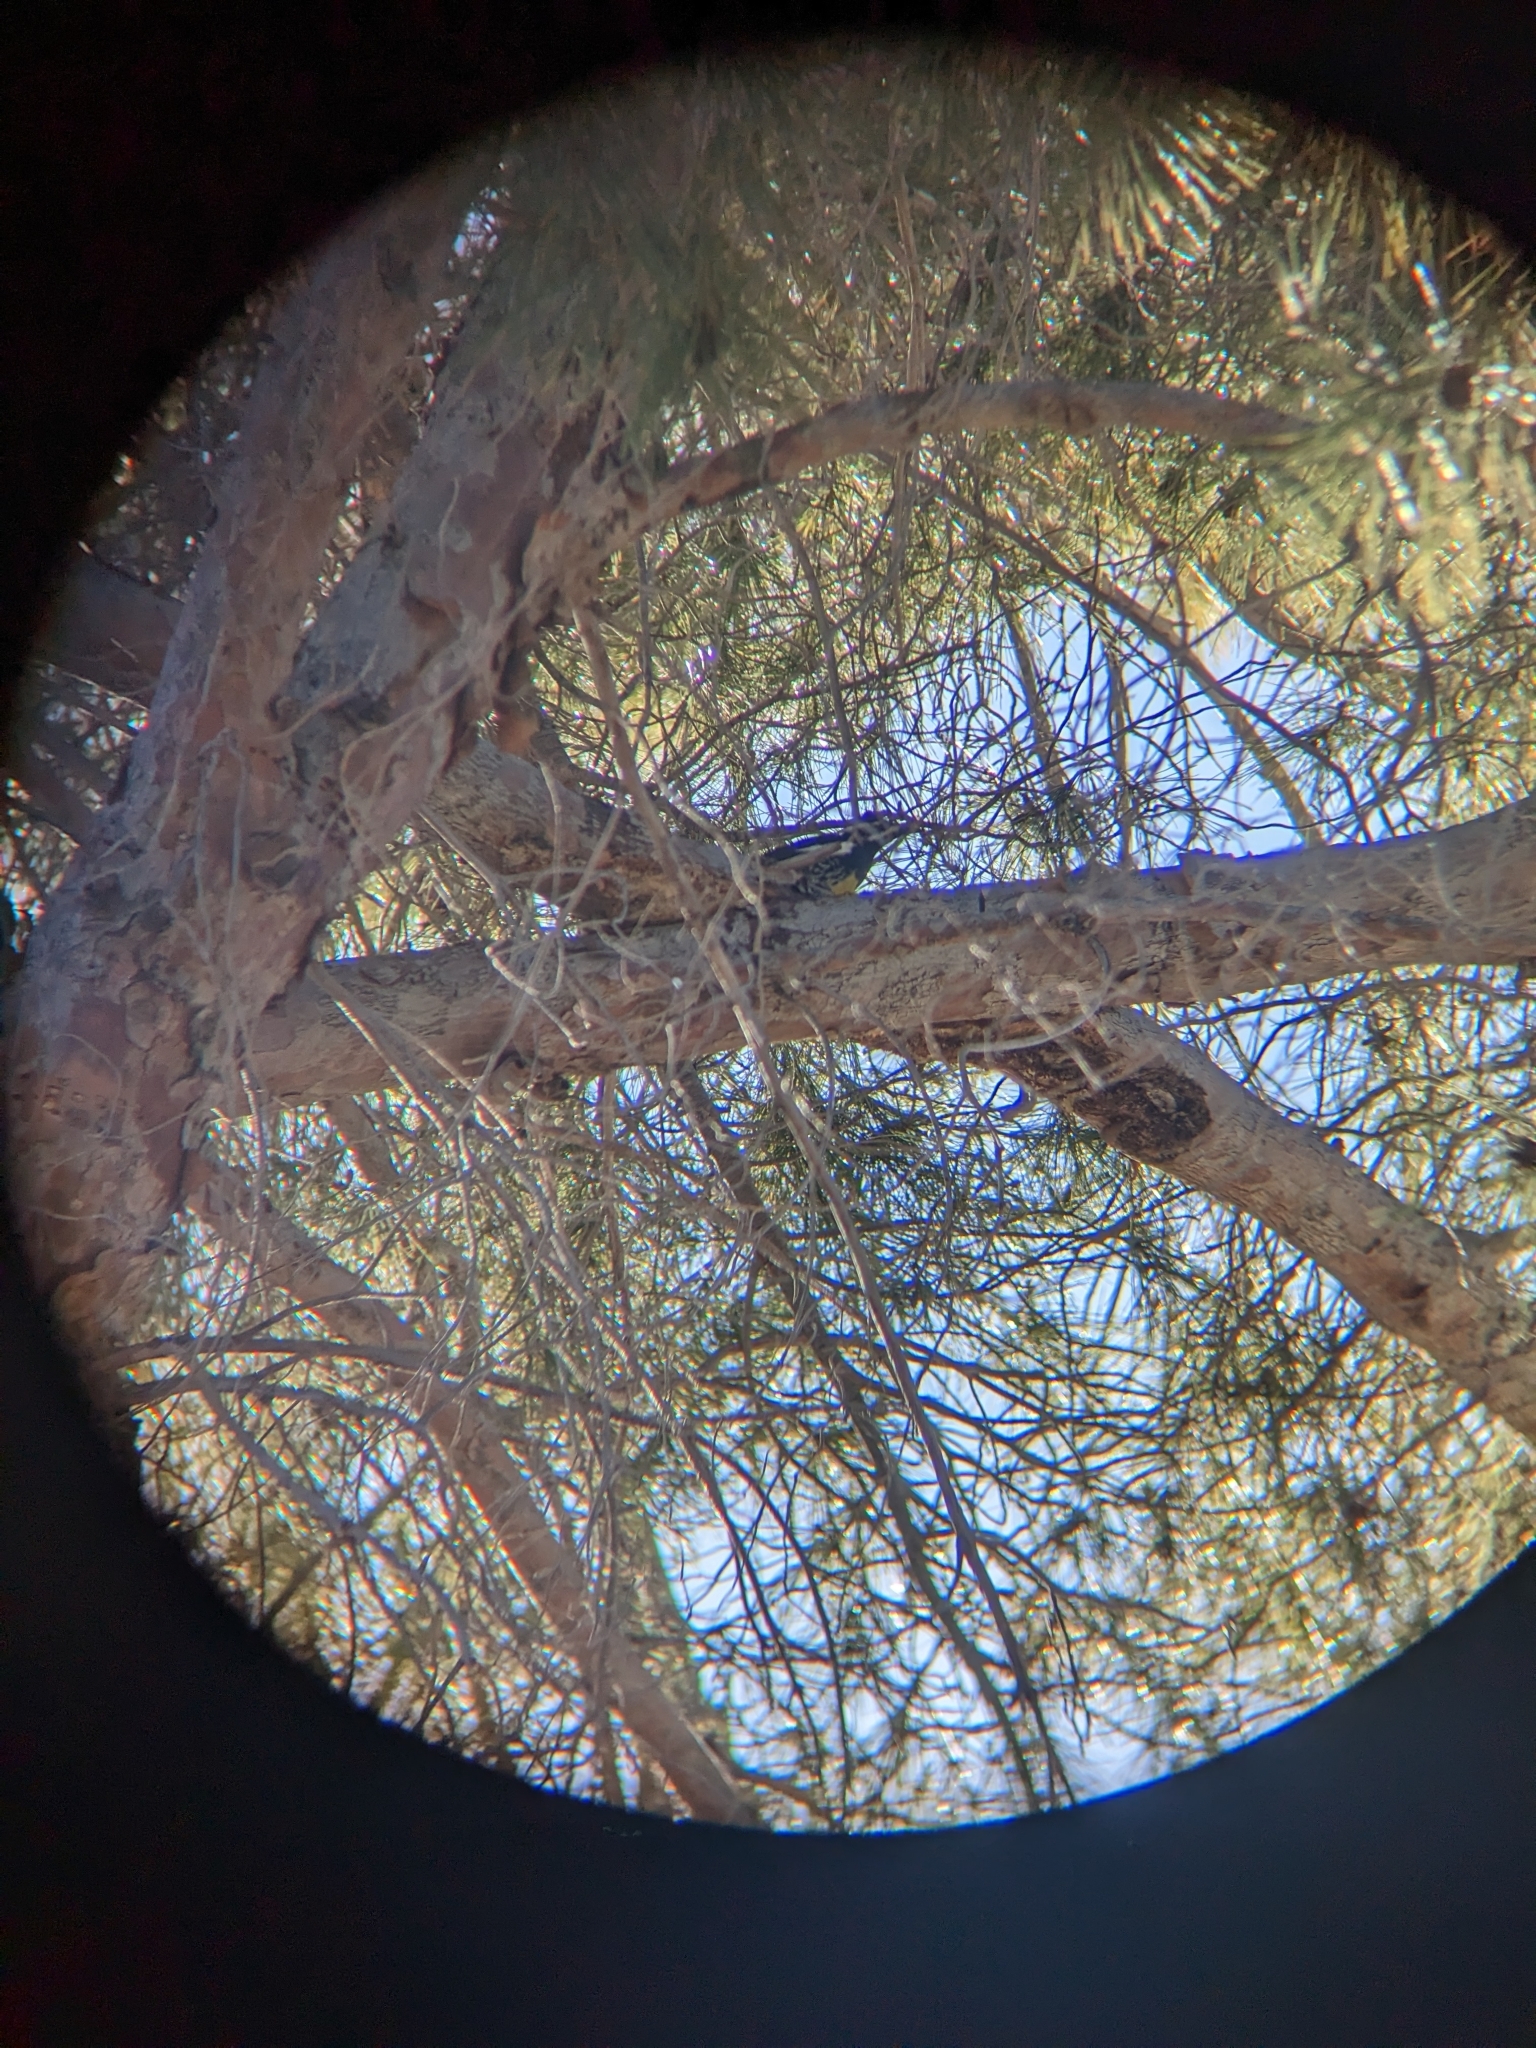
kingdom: Animalia
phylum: Chordata
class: Aves
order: Piciformes
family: Picidae
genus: Sphyrapicus
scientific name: Sphyrapicus thyroideus
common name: Williamson's sapsucker
